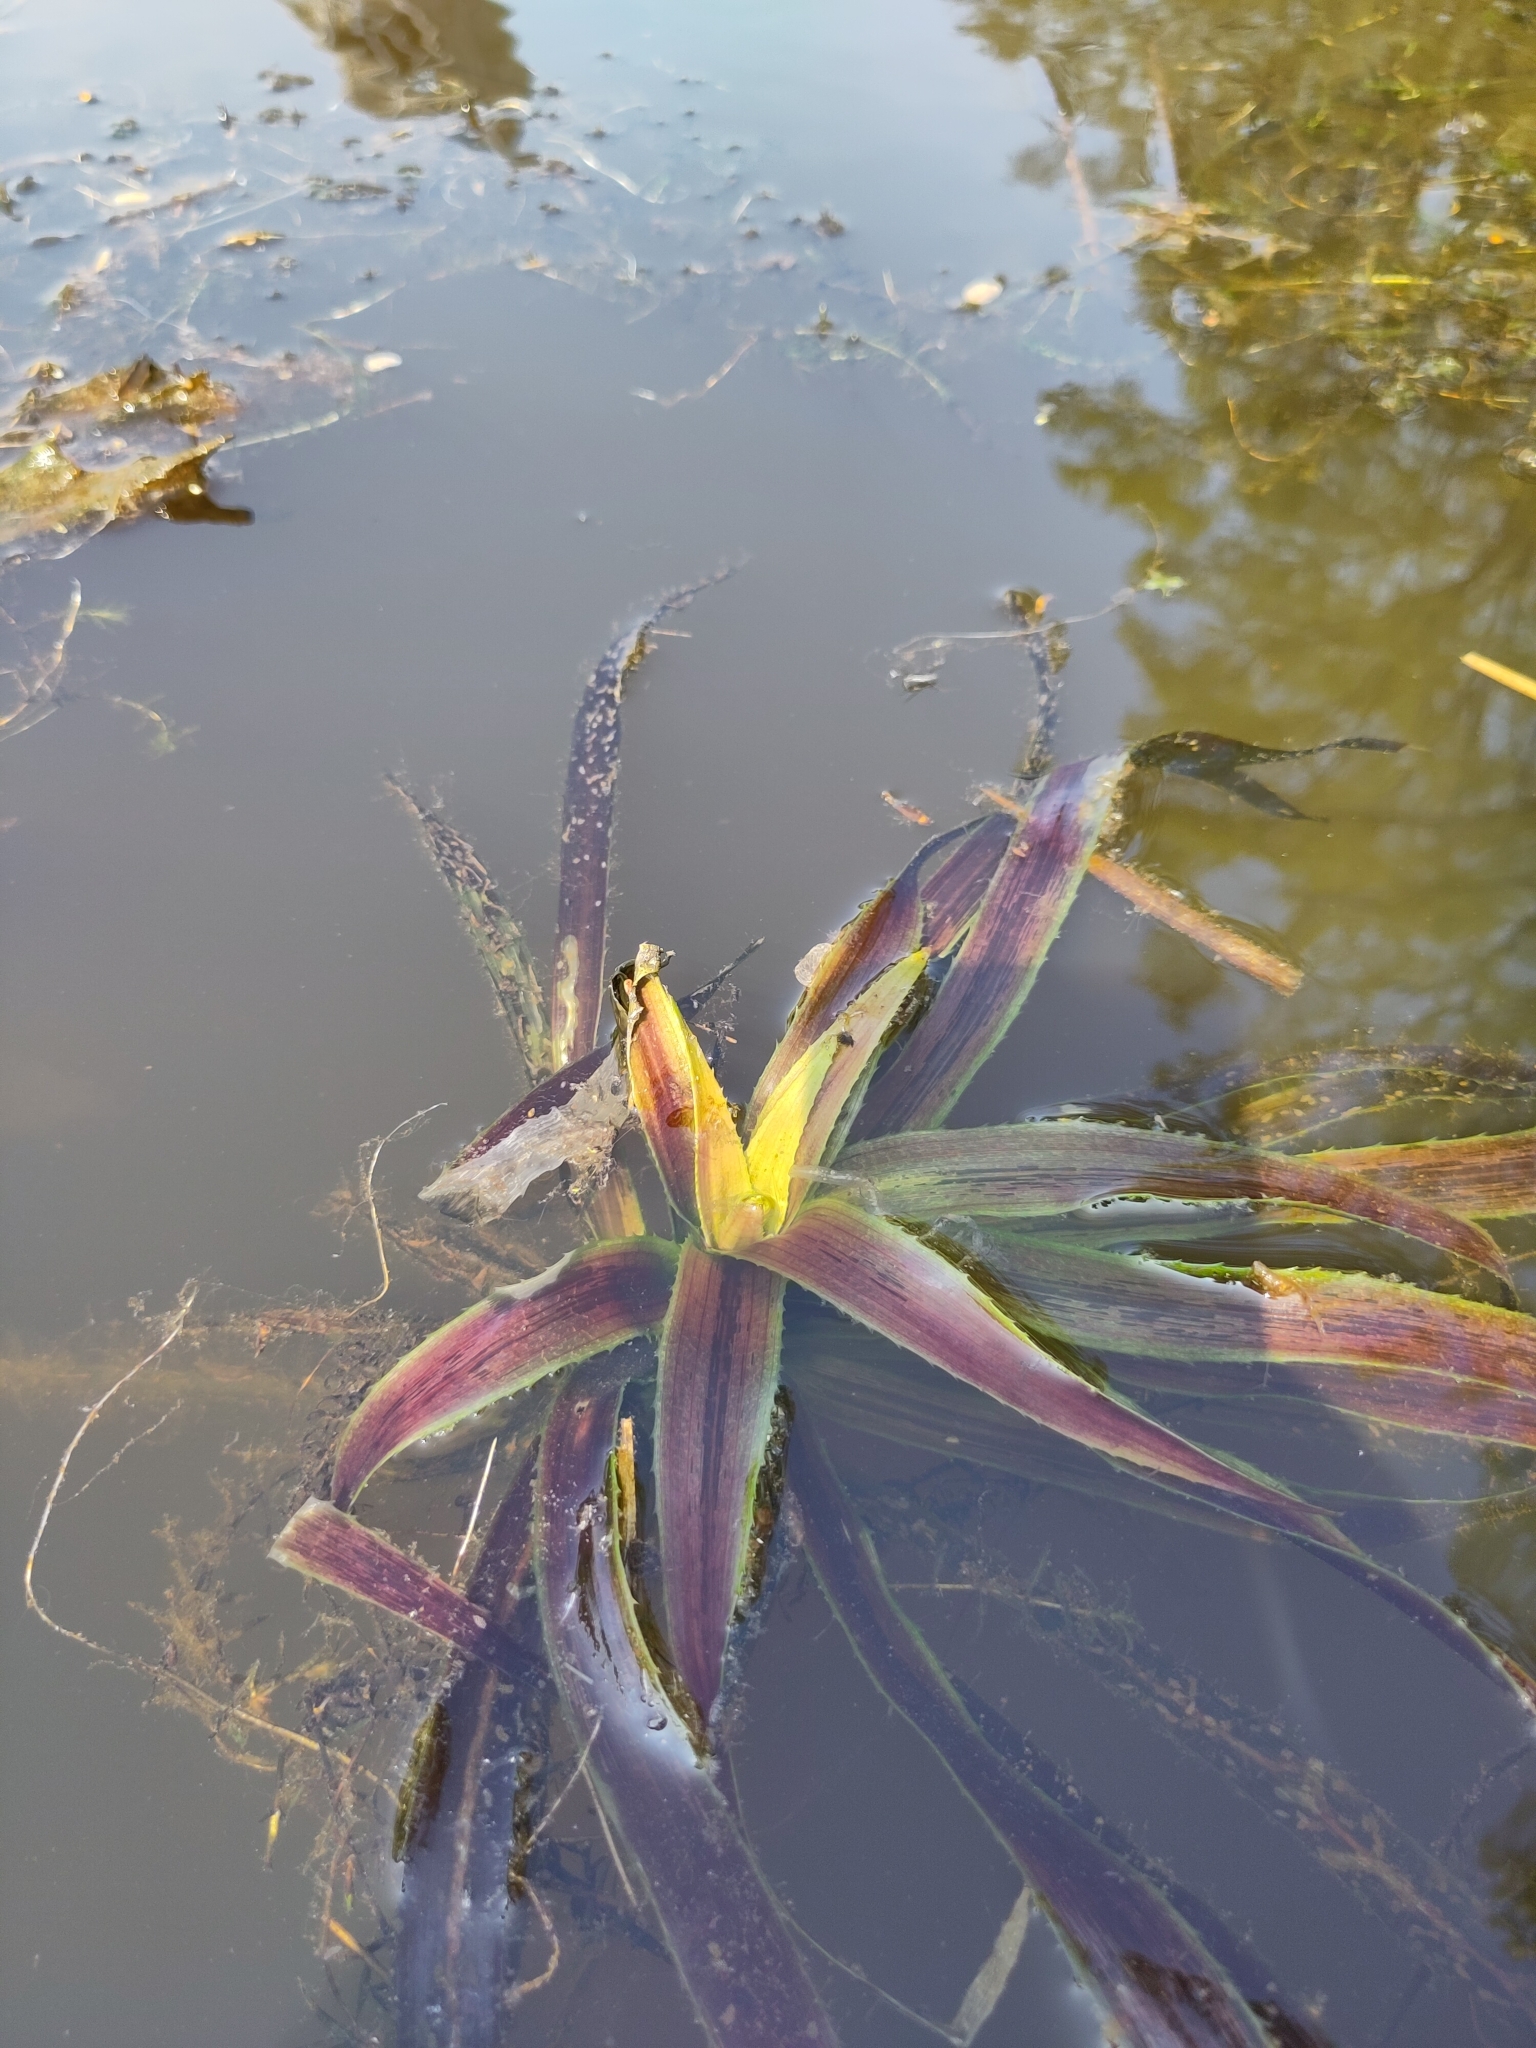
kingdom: Plantae
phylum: Tracheophyta
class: Liliopsida
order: Alismatales
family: Hydrocharitaceae
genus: Stratiotes
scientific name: Stratiotes aloides
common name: Water-soldier
